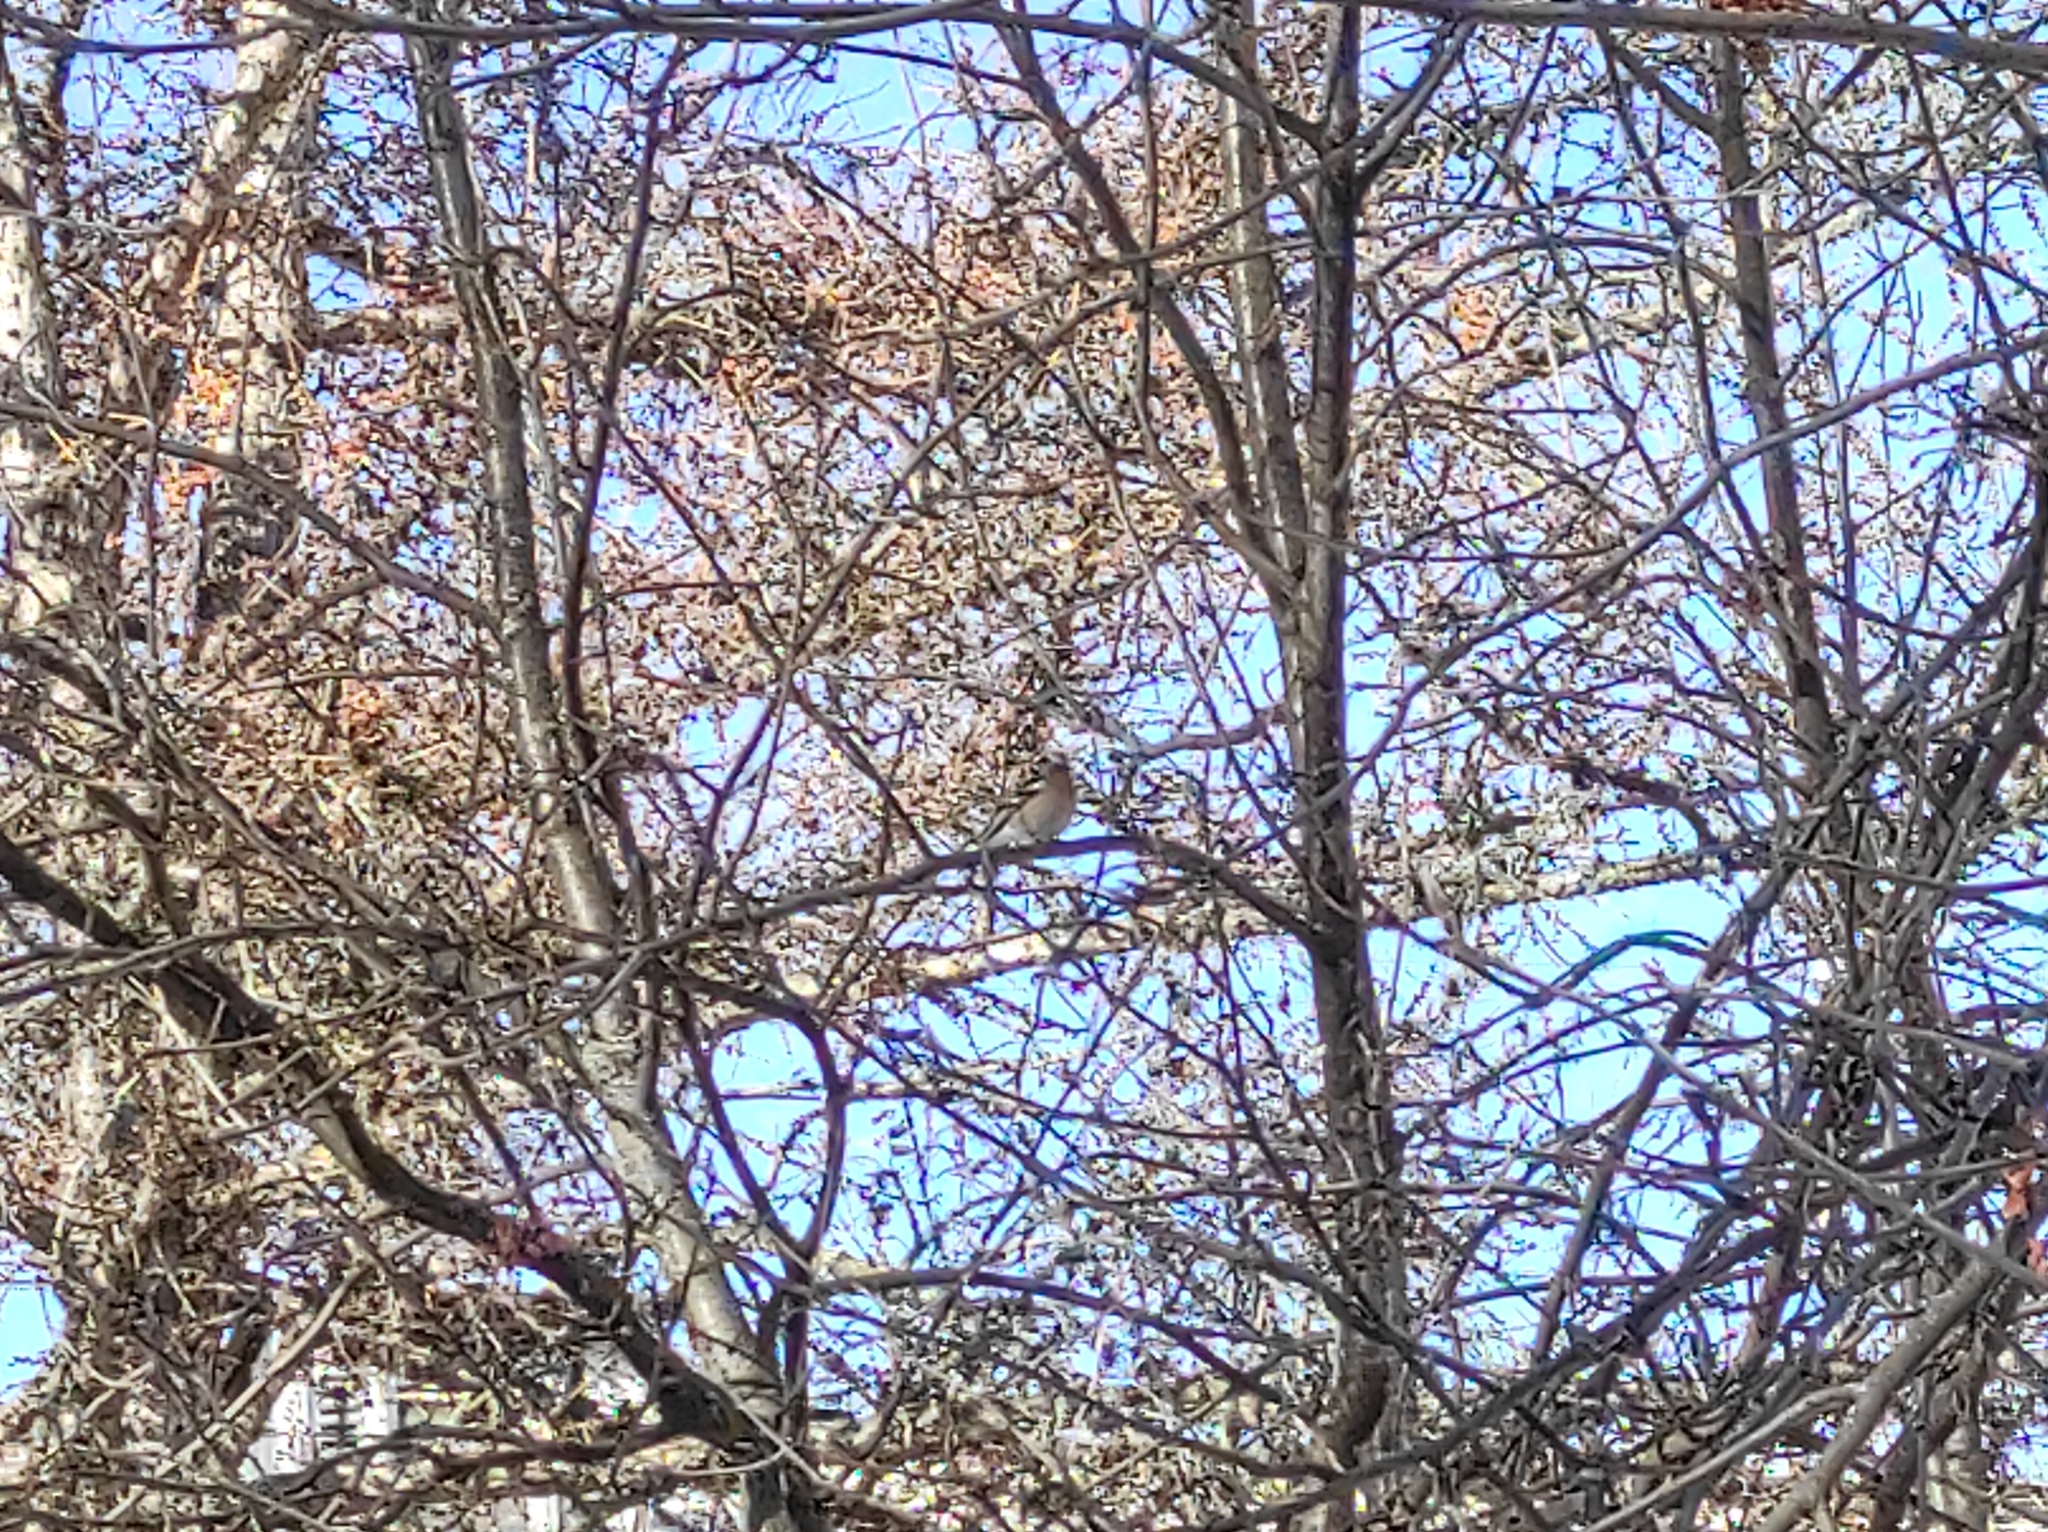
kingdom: Animalia
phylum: Chordata
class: Aves
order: Passeriformes
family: Fringillidae
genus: Fringilla
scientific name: Fringilla coelebs
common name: Common chaffinch
